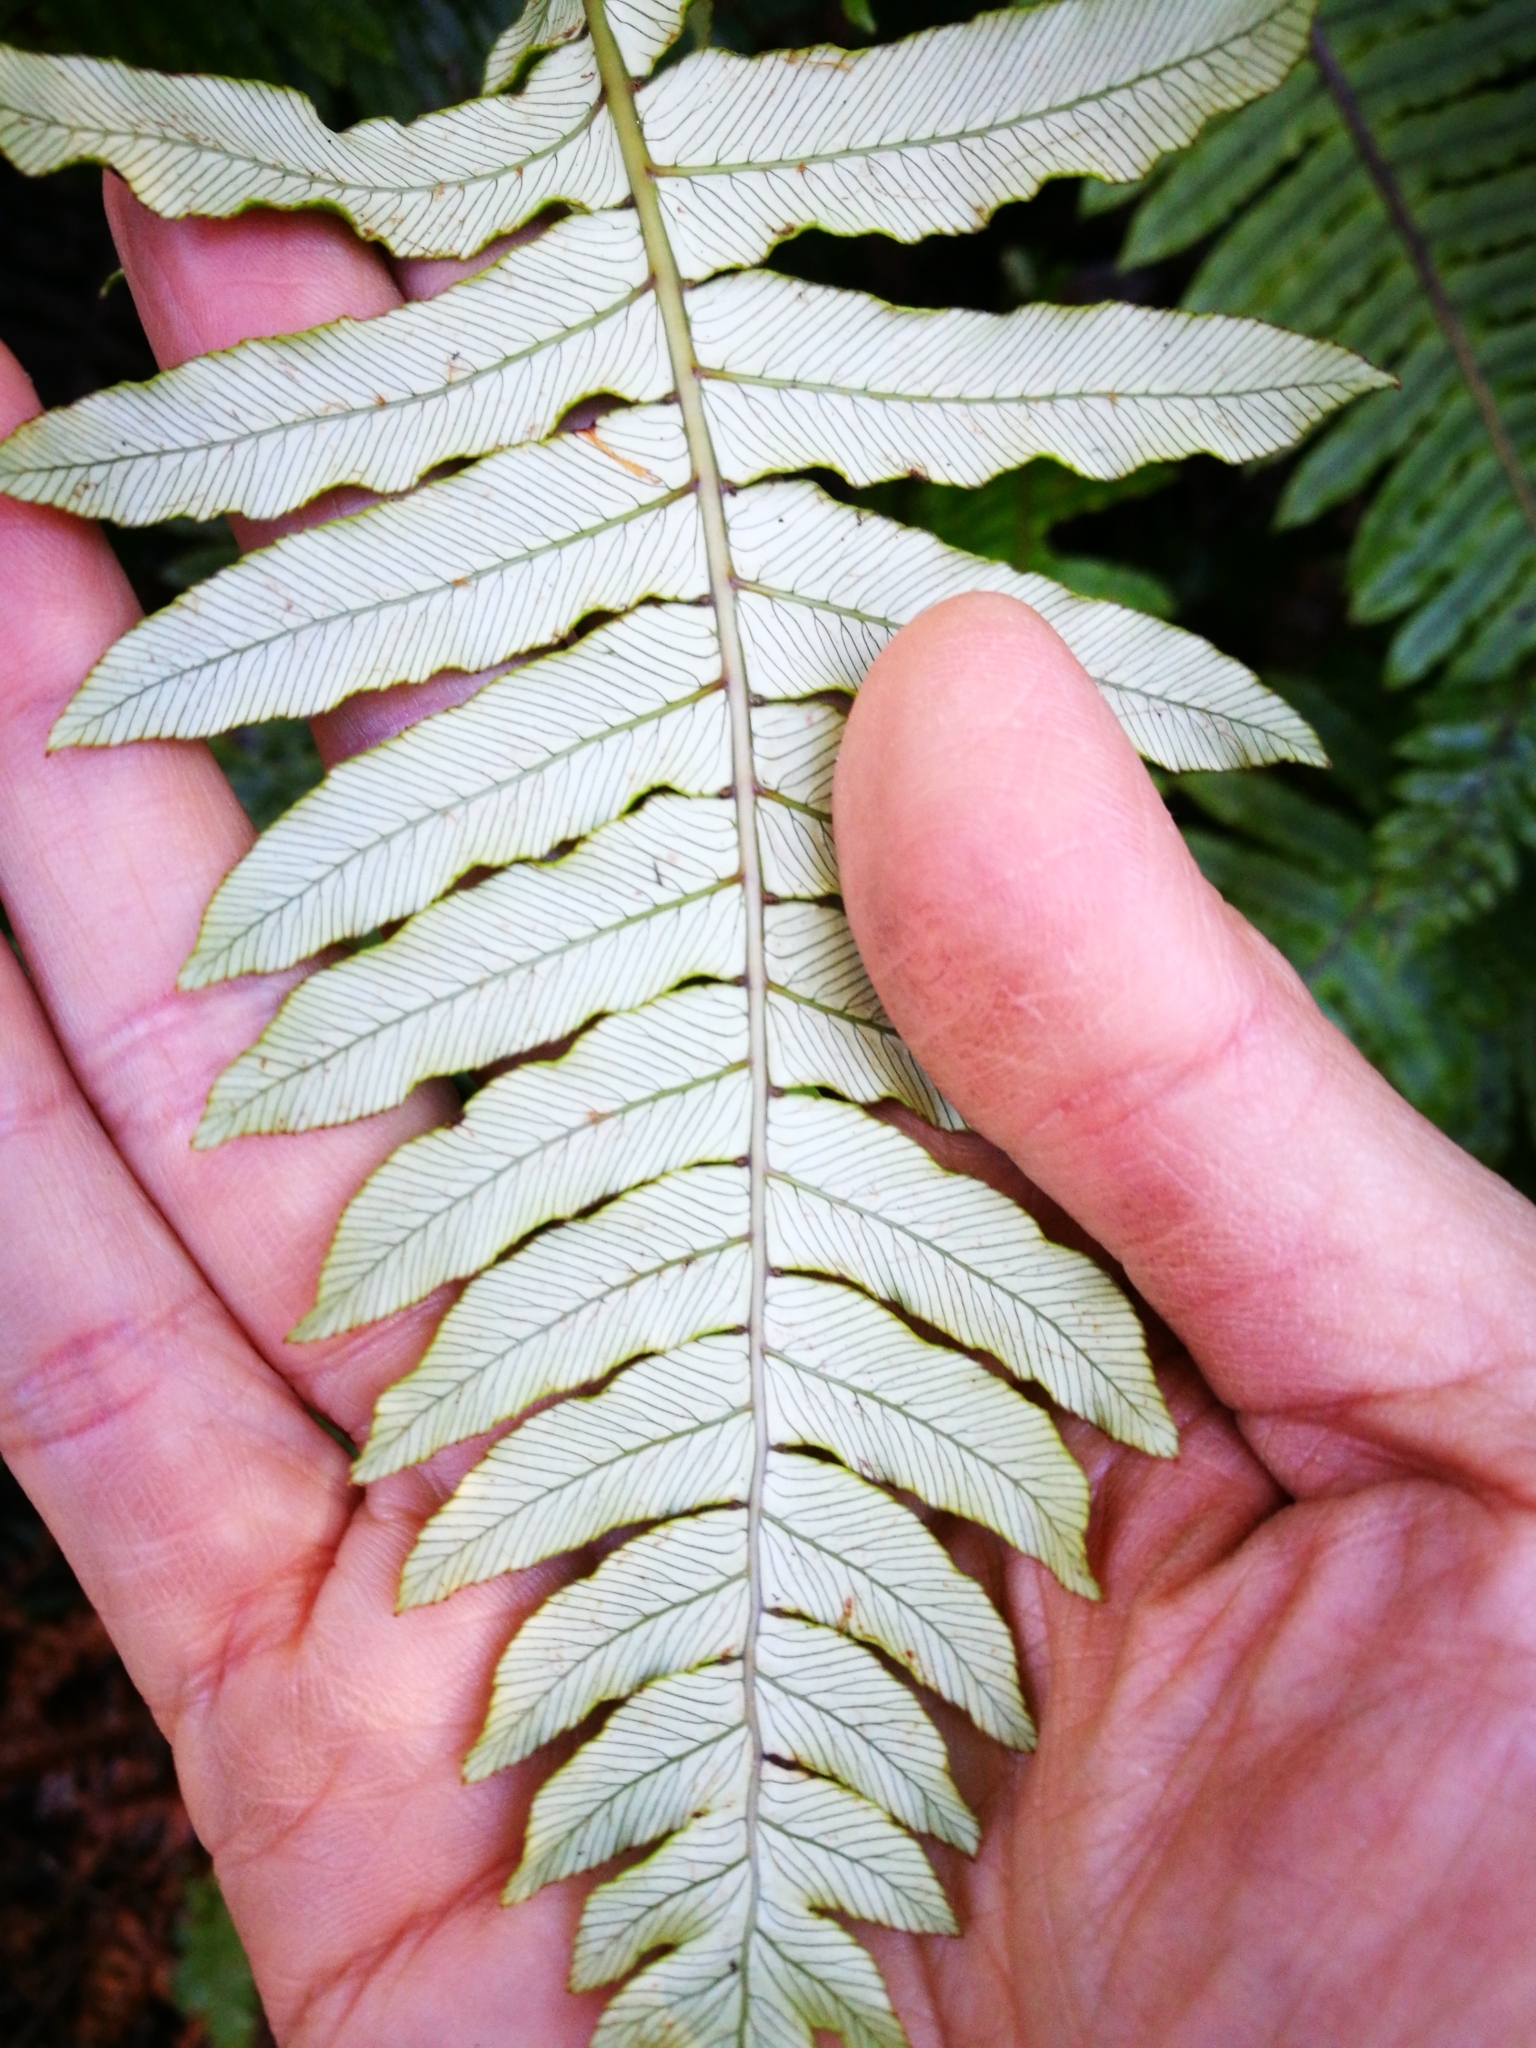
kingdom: Plantae
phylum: Tracheophyta
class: Polypodiopsida
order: Polypodiales
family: Blechnaceae
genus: Lomaria
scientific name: Lomaria discolor
